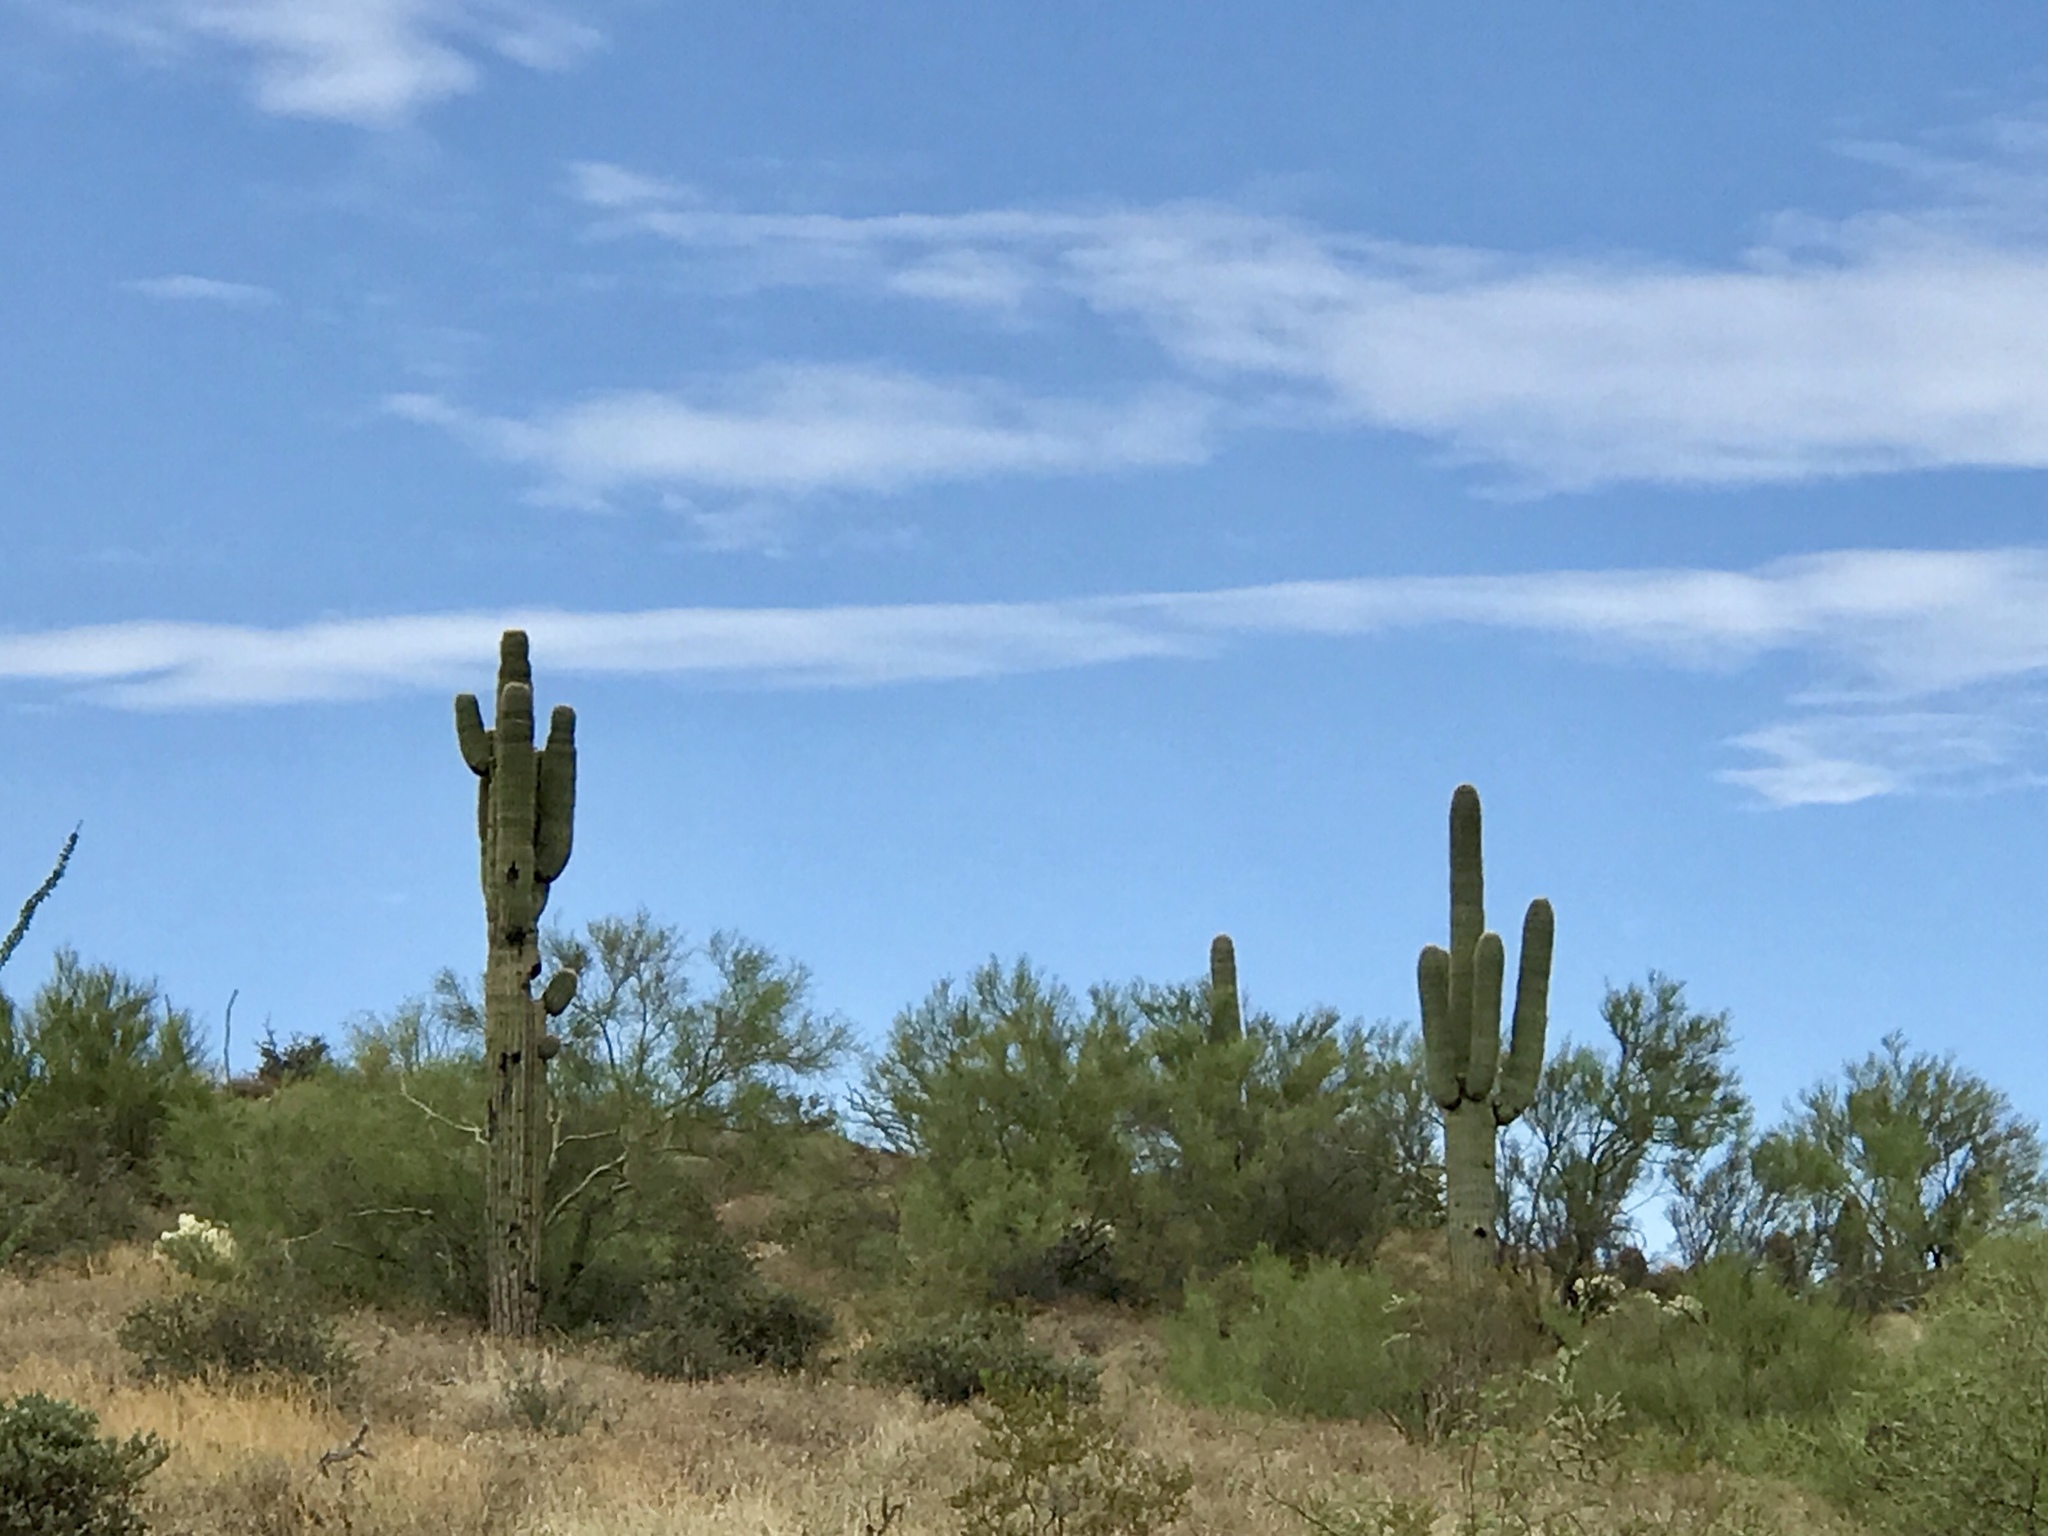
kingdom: Plantae
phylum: Tracheophyta
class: Magnoliopsida
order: Caryophyllales
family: Cactaceae
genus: Carnegiea
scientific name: Carnegiea gigantea
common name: Saguaro
